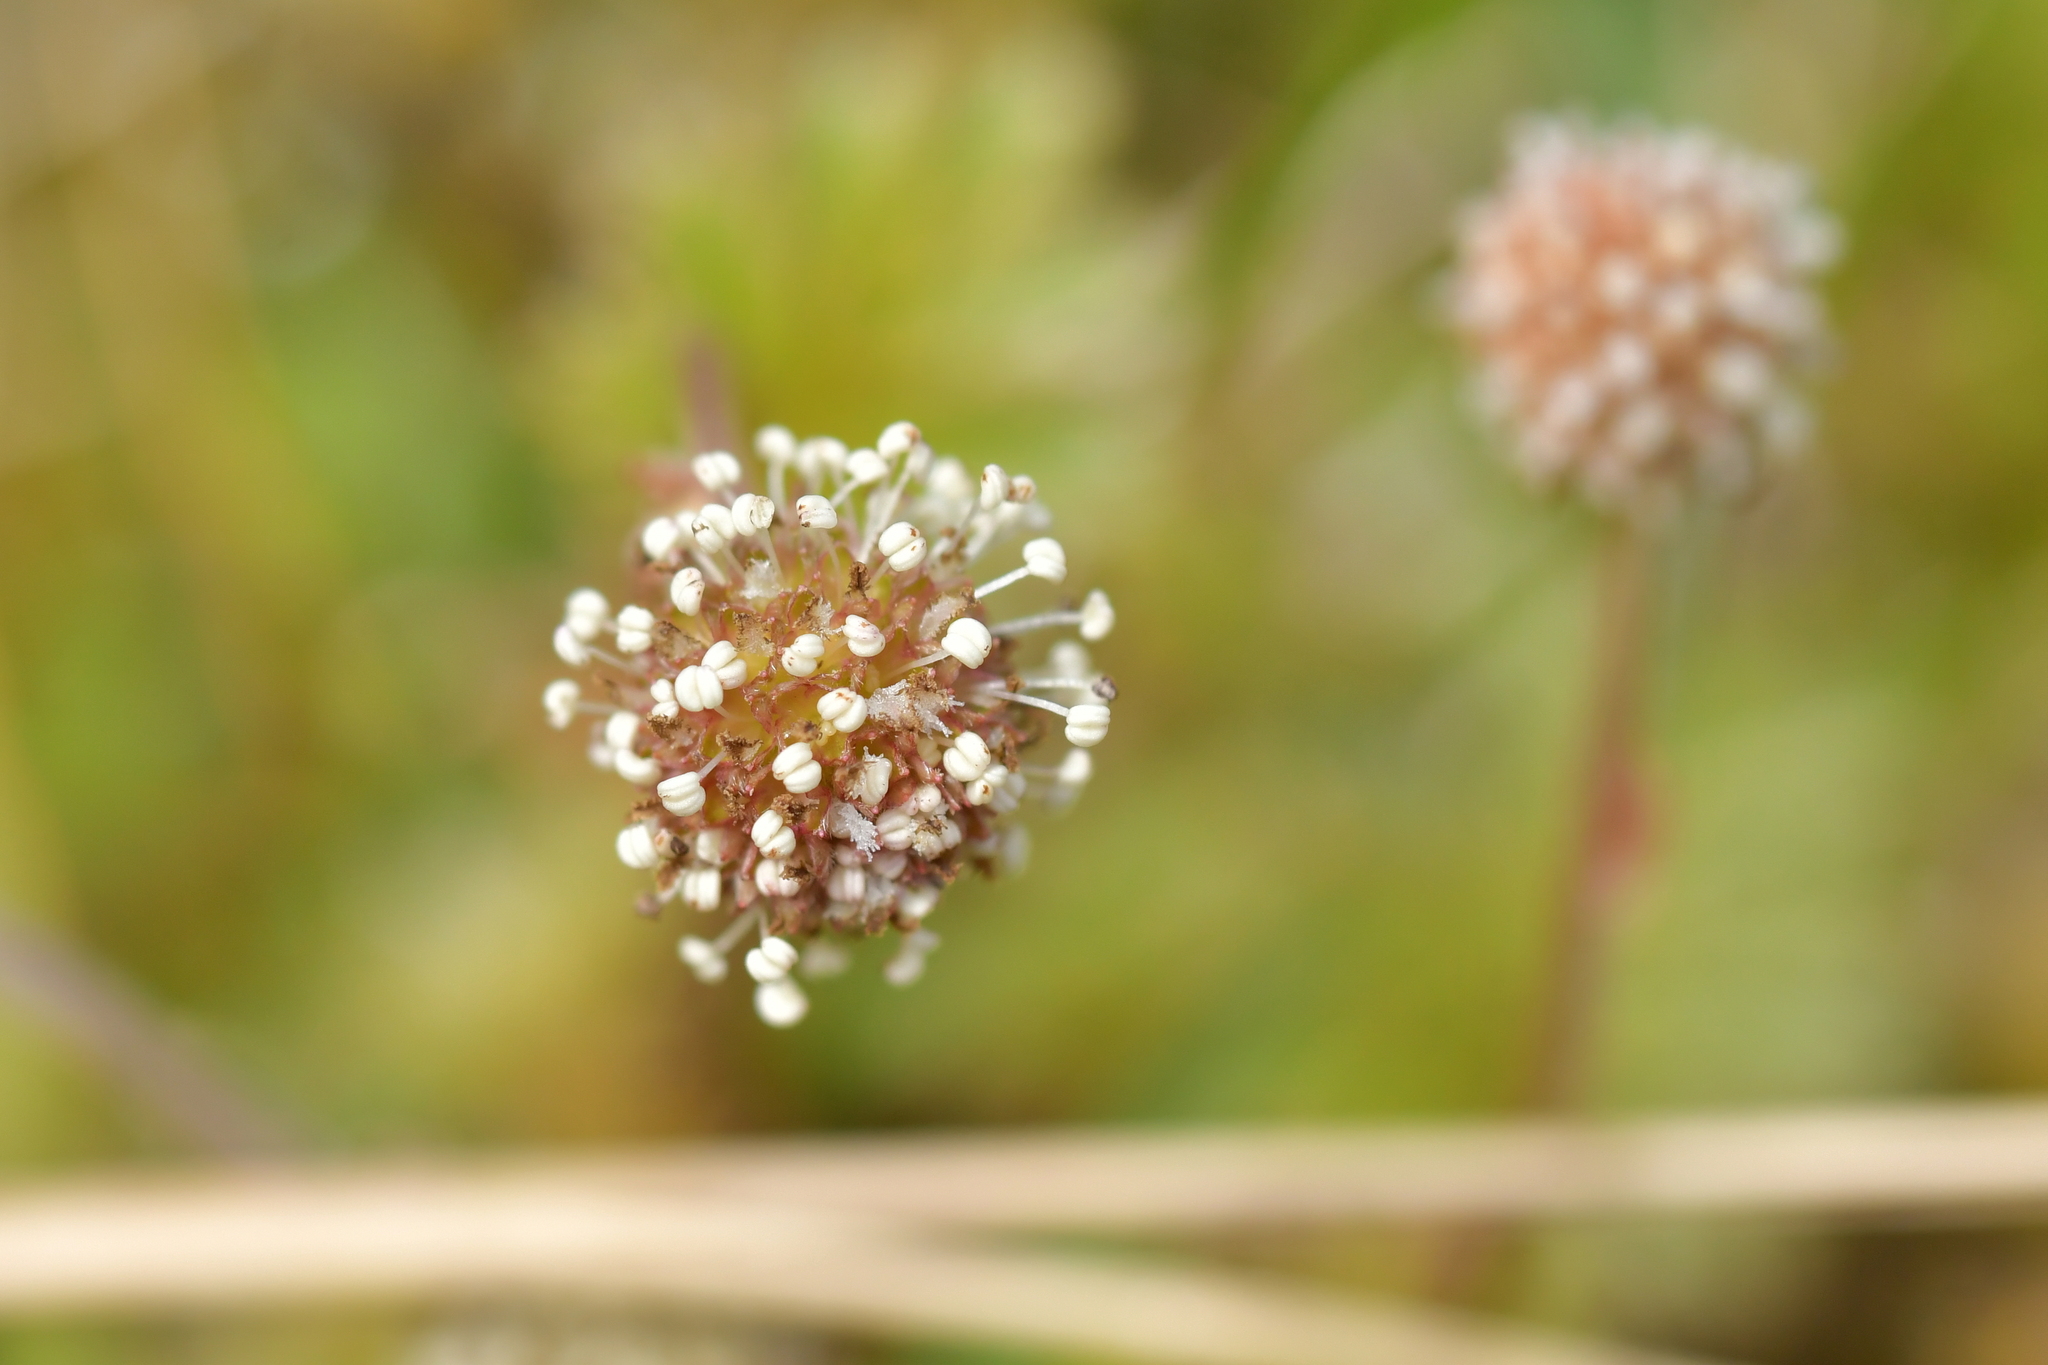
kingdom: Plantae
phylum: Tracheophyta
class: Magnoliopsida
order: Rosales
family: Rosaceae
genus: Acaena
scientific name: Acaena anserinifolia
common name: Bronze pirri-pirri-bur
